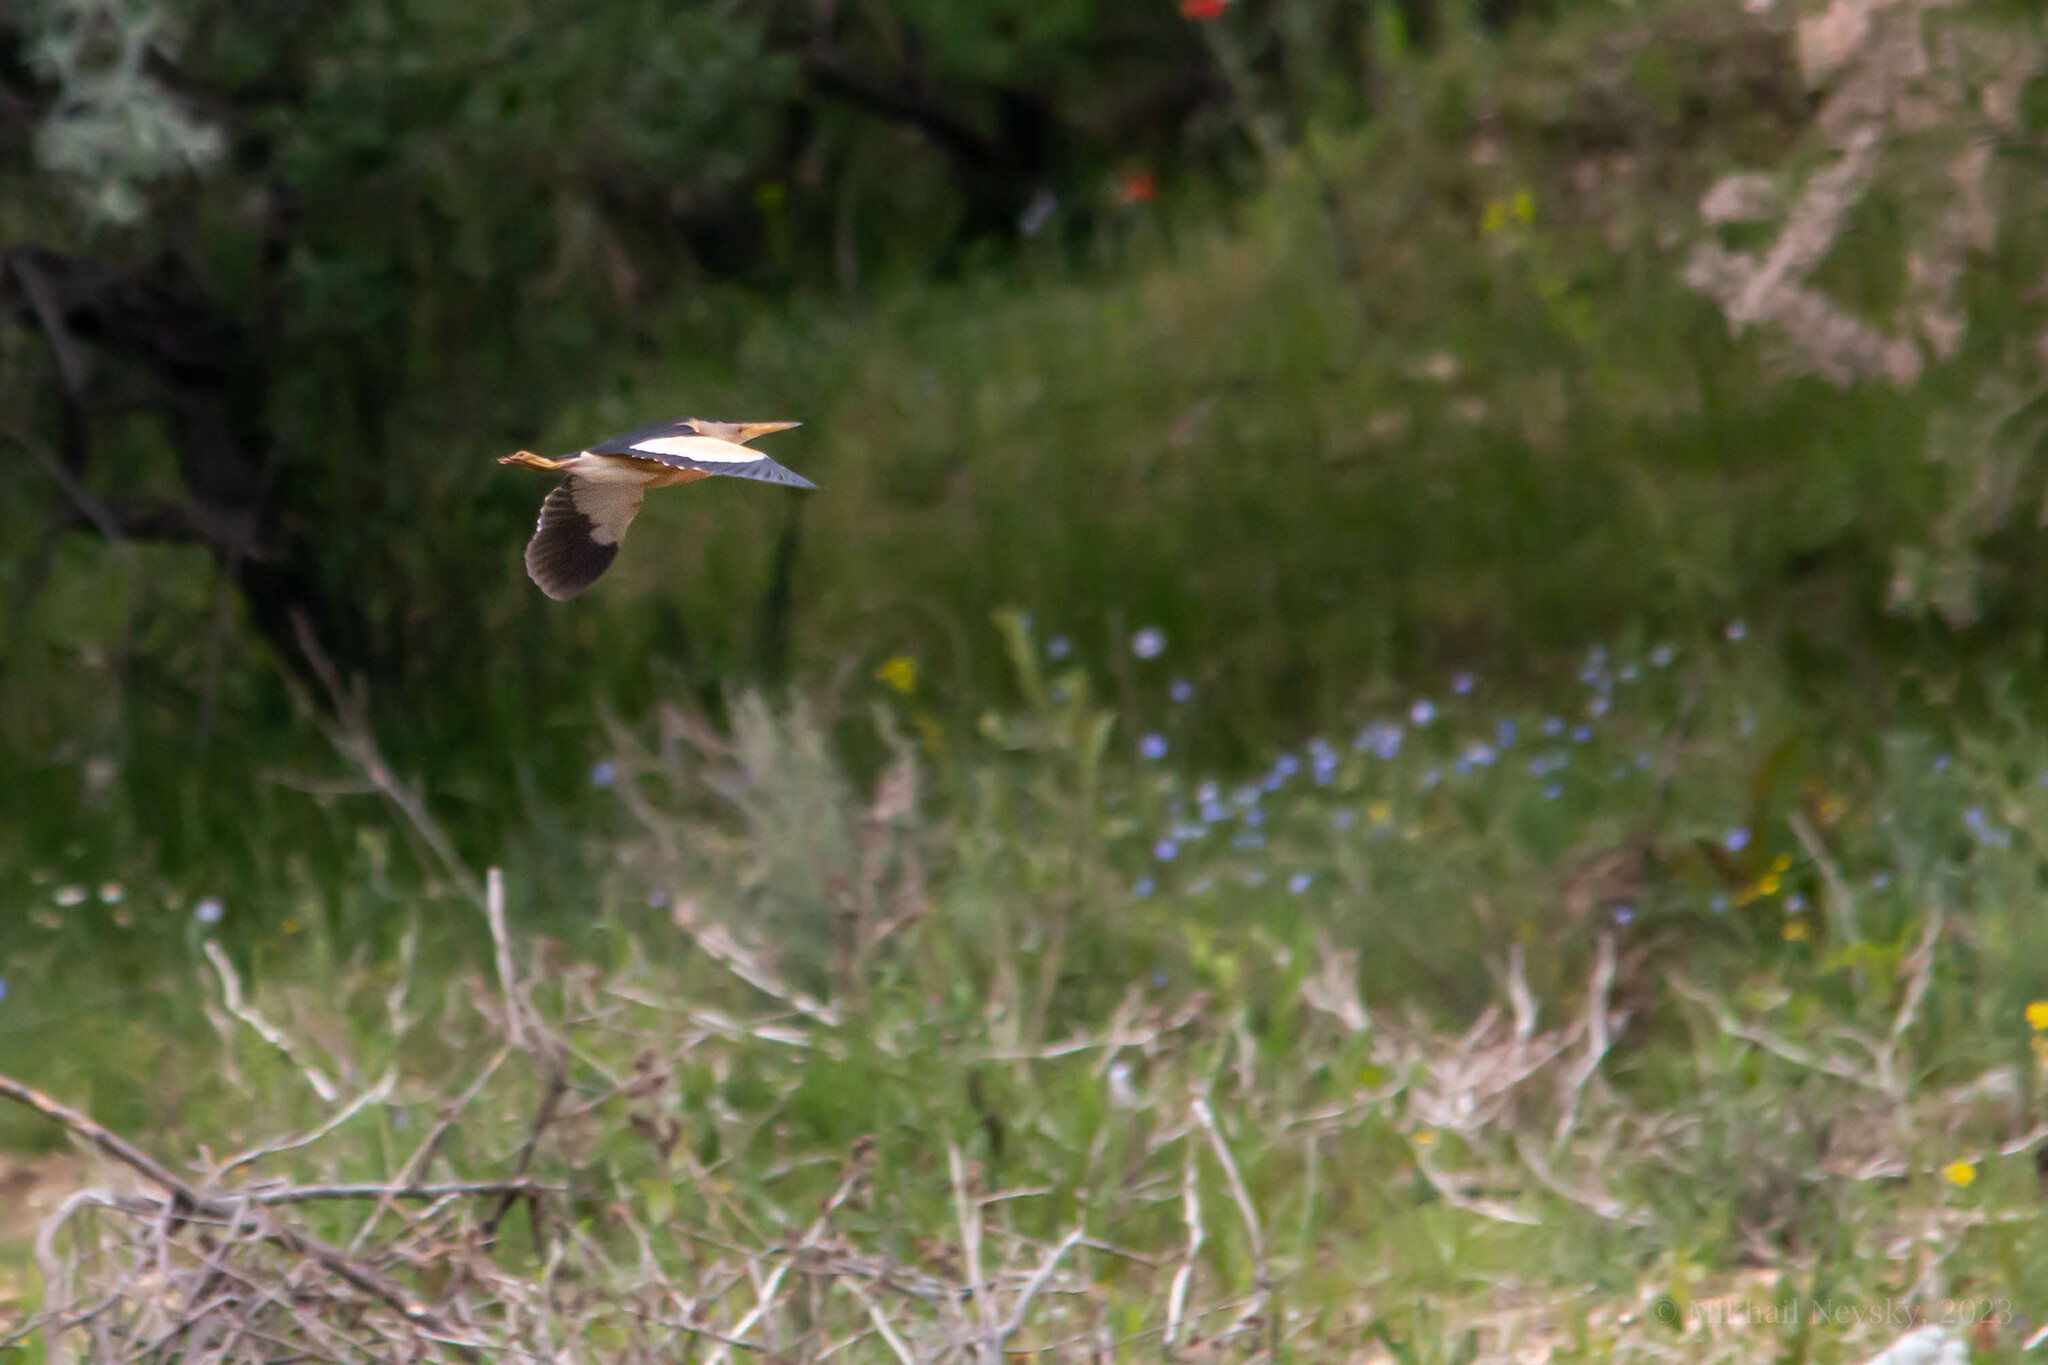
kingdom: Animalia
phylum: Chordata
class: Aves
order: Pelecaniformes
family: Ardeidae
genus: Ixobrychus
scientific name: Ixobrychus minutus
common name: Little bittern
